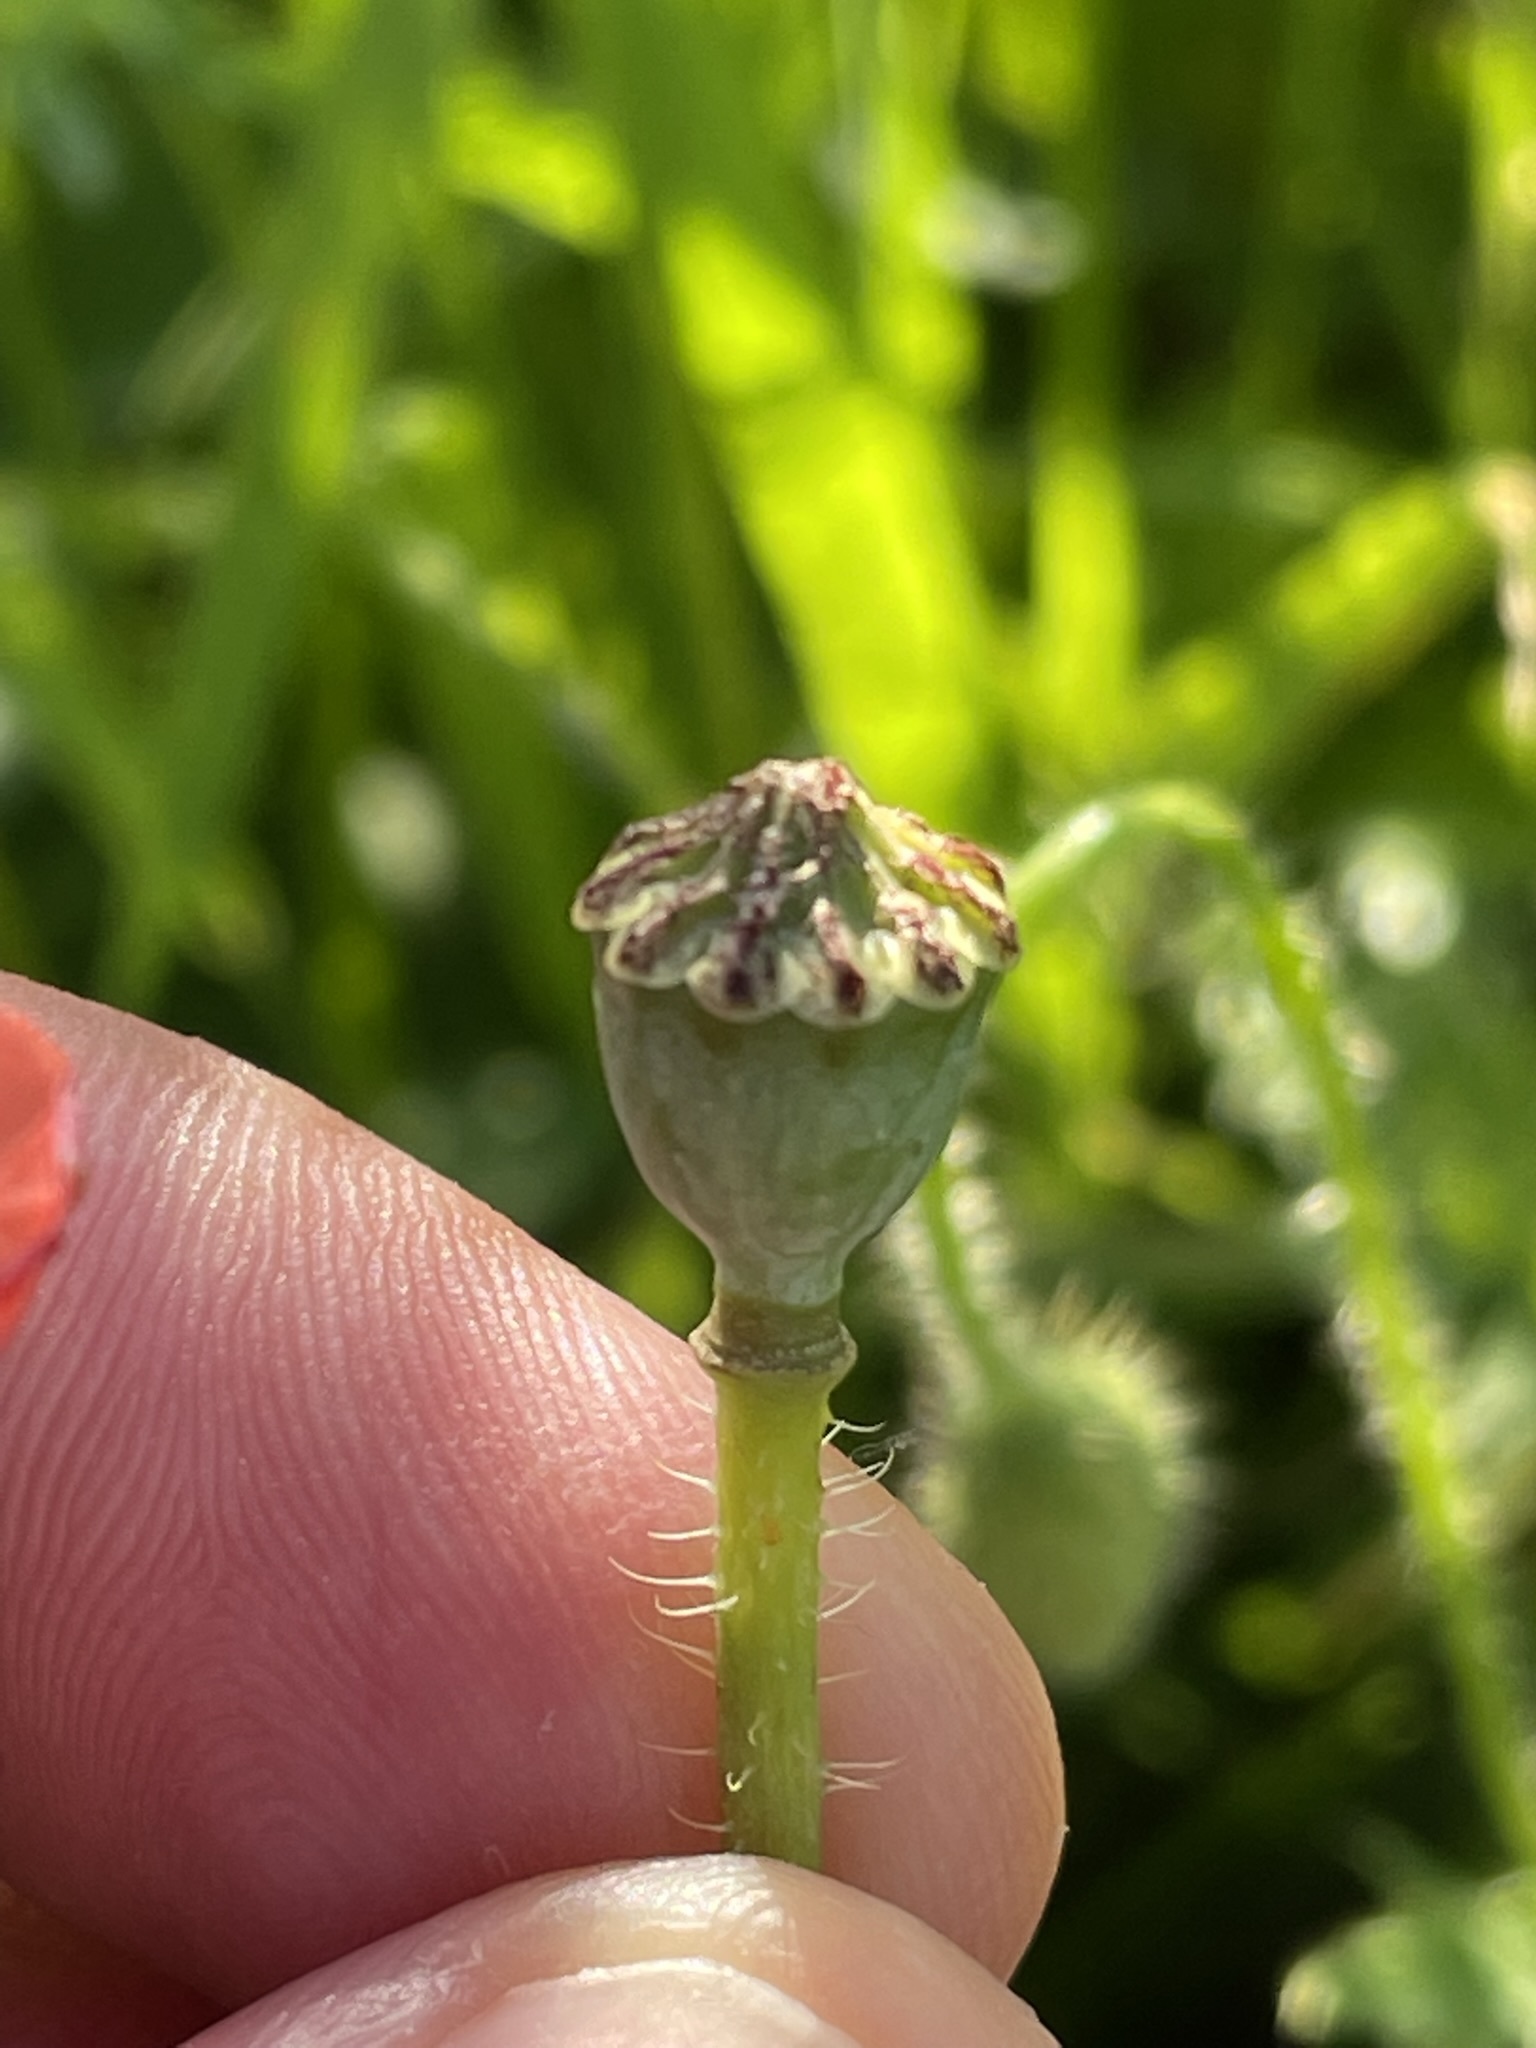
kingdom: Plantae
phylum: Tracheophyta
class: Magnoliopsida
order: Ranunculales
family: Papaveraceae
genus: Papaver
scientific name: Papaver rhoeas
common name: Corn poppy
